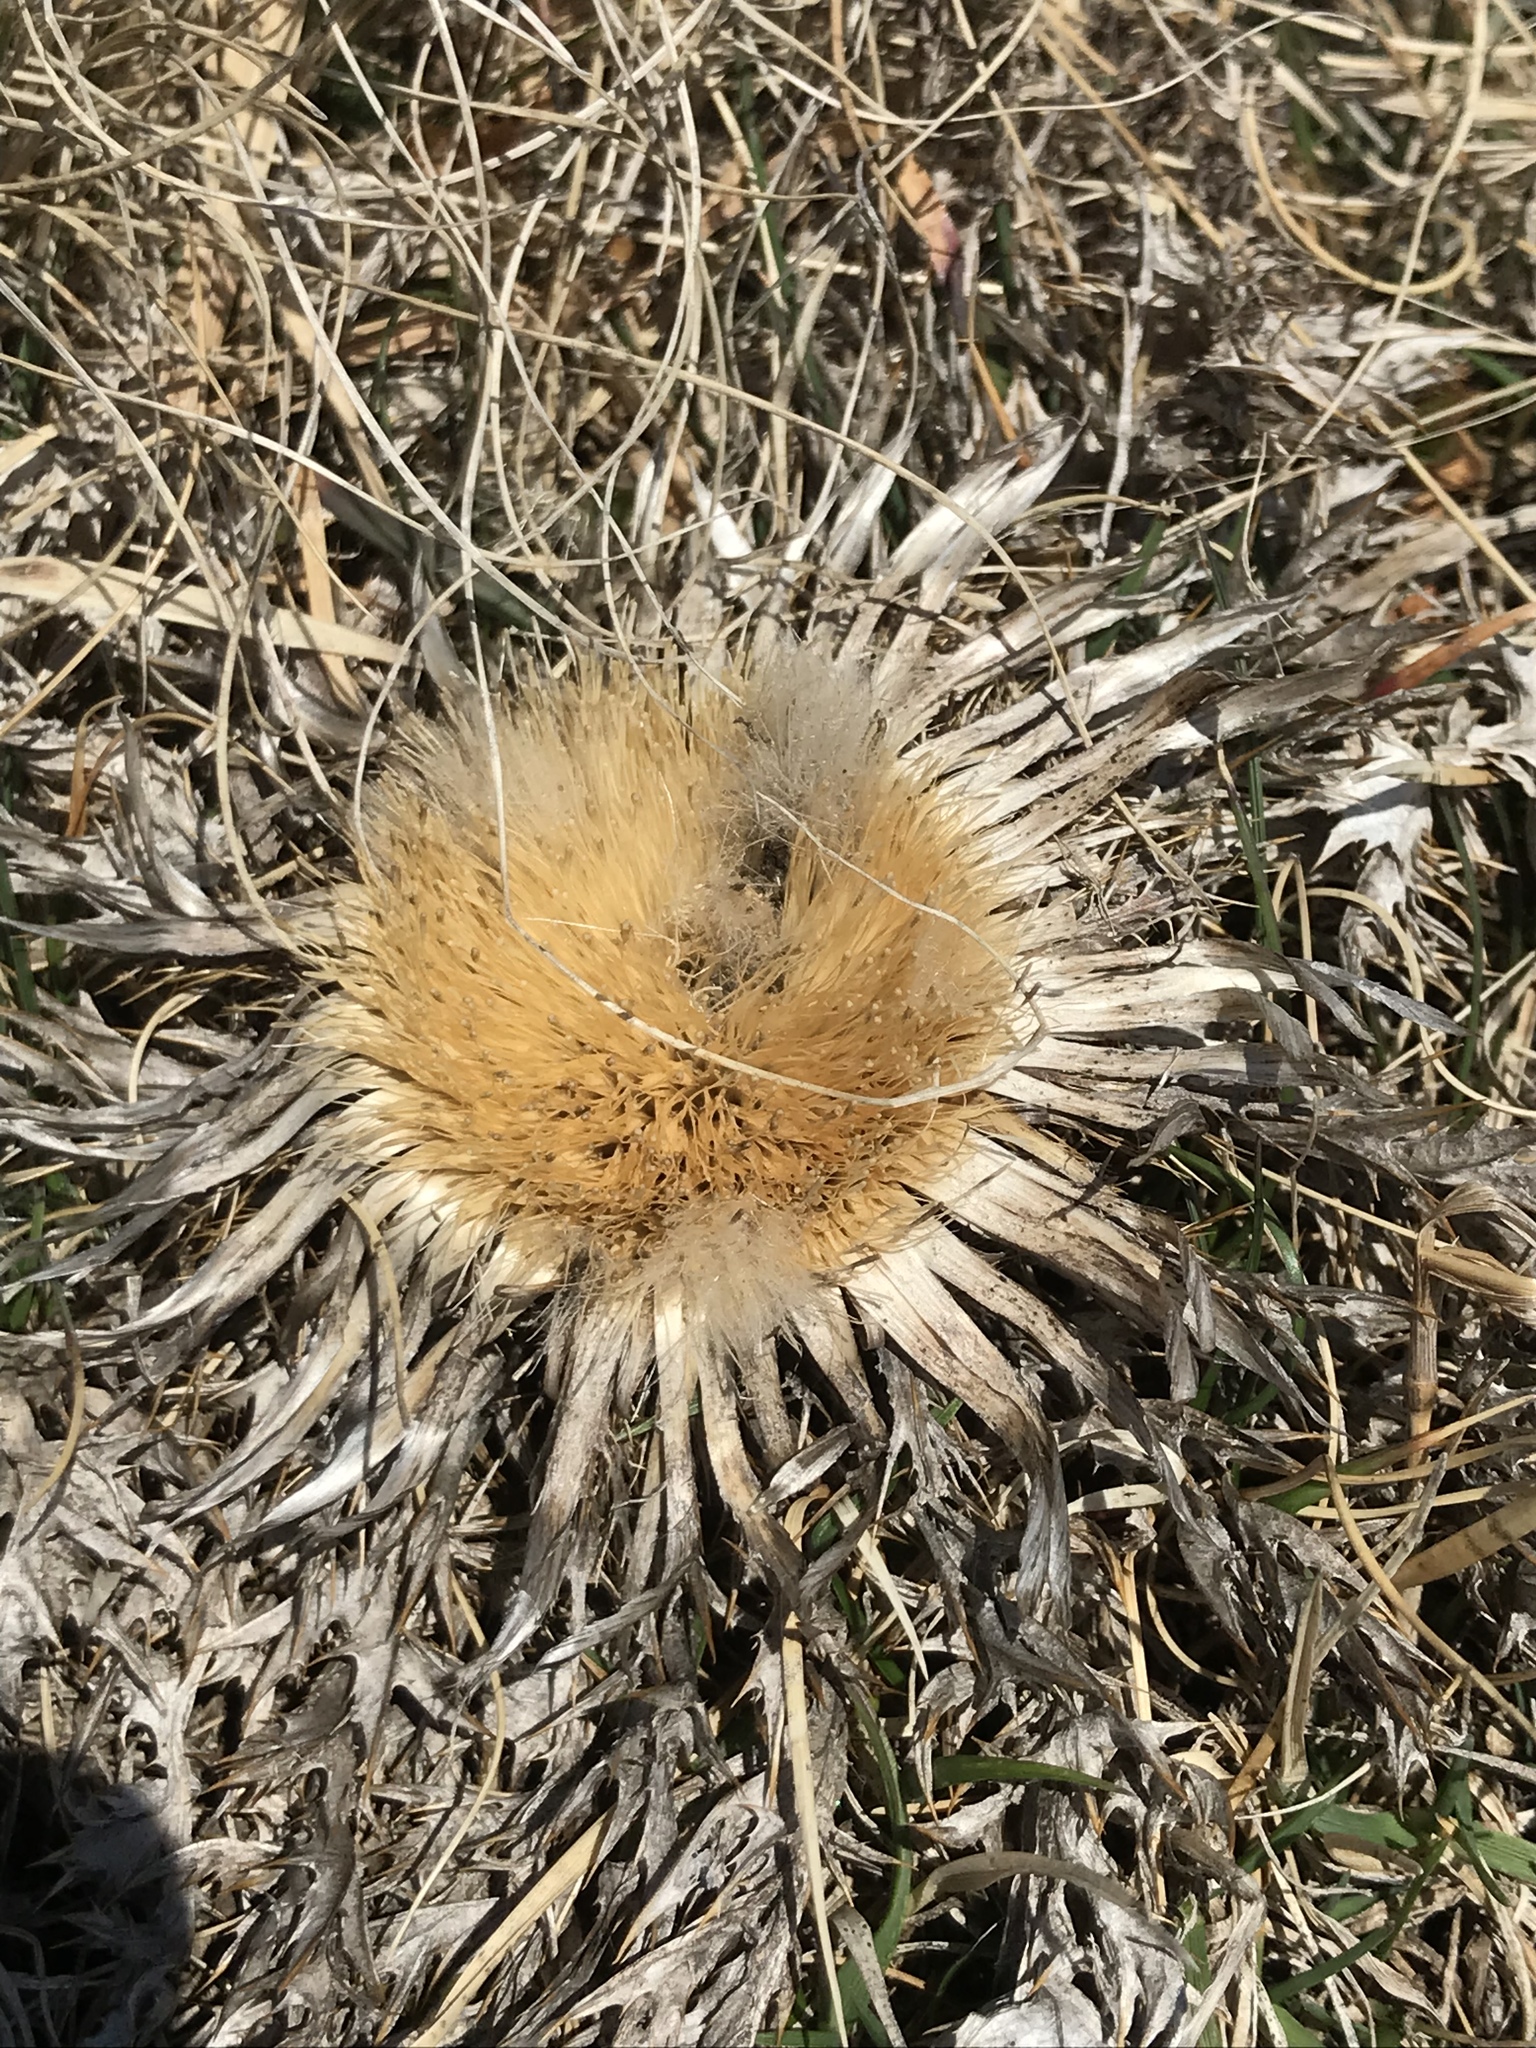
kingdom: Plantae
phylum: Tracheophyta
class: Magnoliopsida
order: Asterales
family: Asteraceae
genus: Carlina
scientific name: Carlina acaulis
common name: Stemless carline thistle
